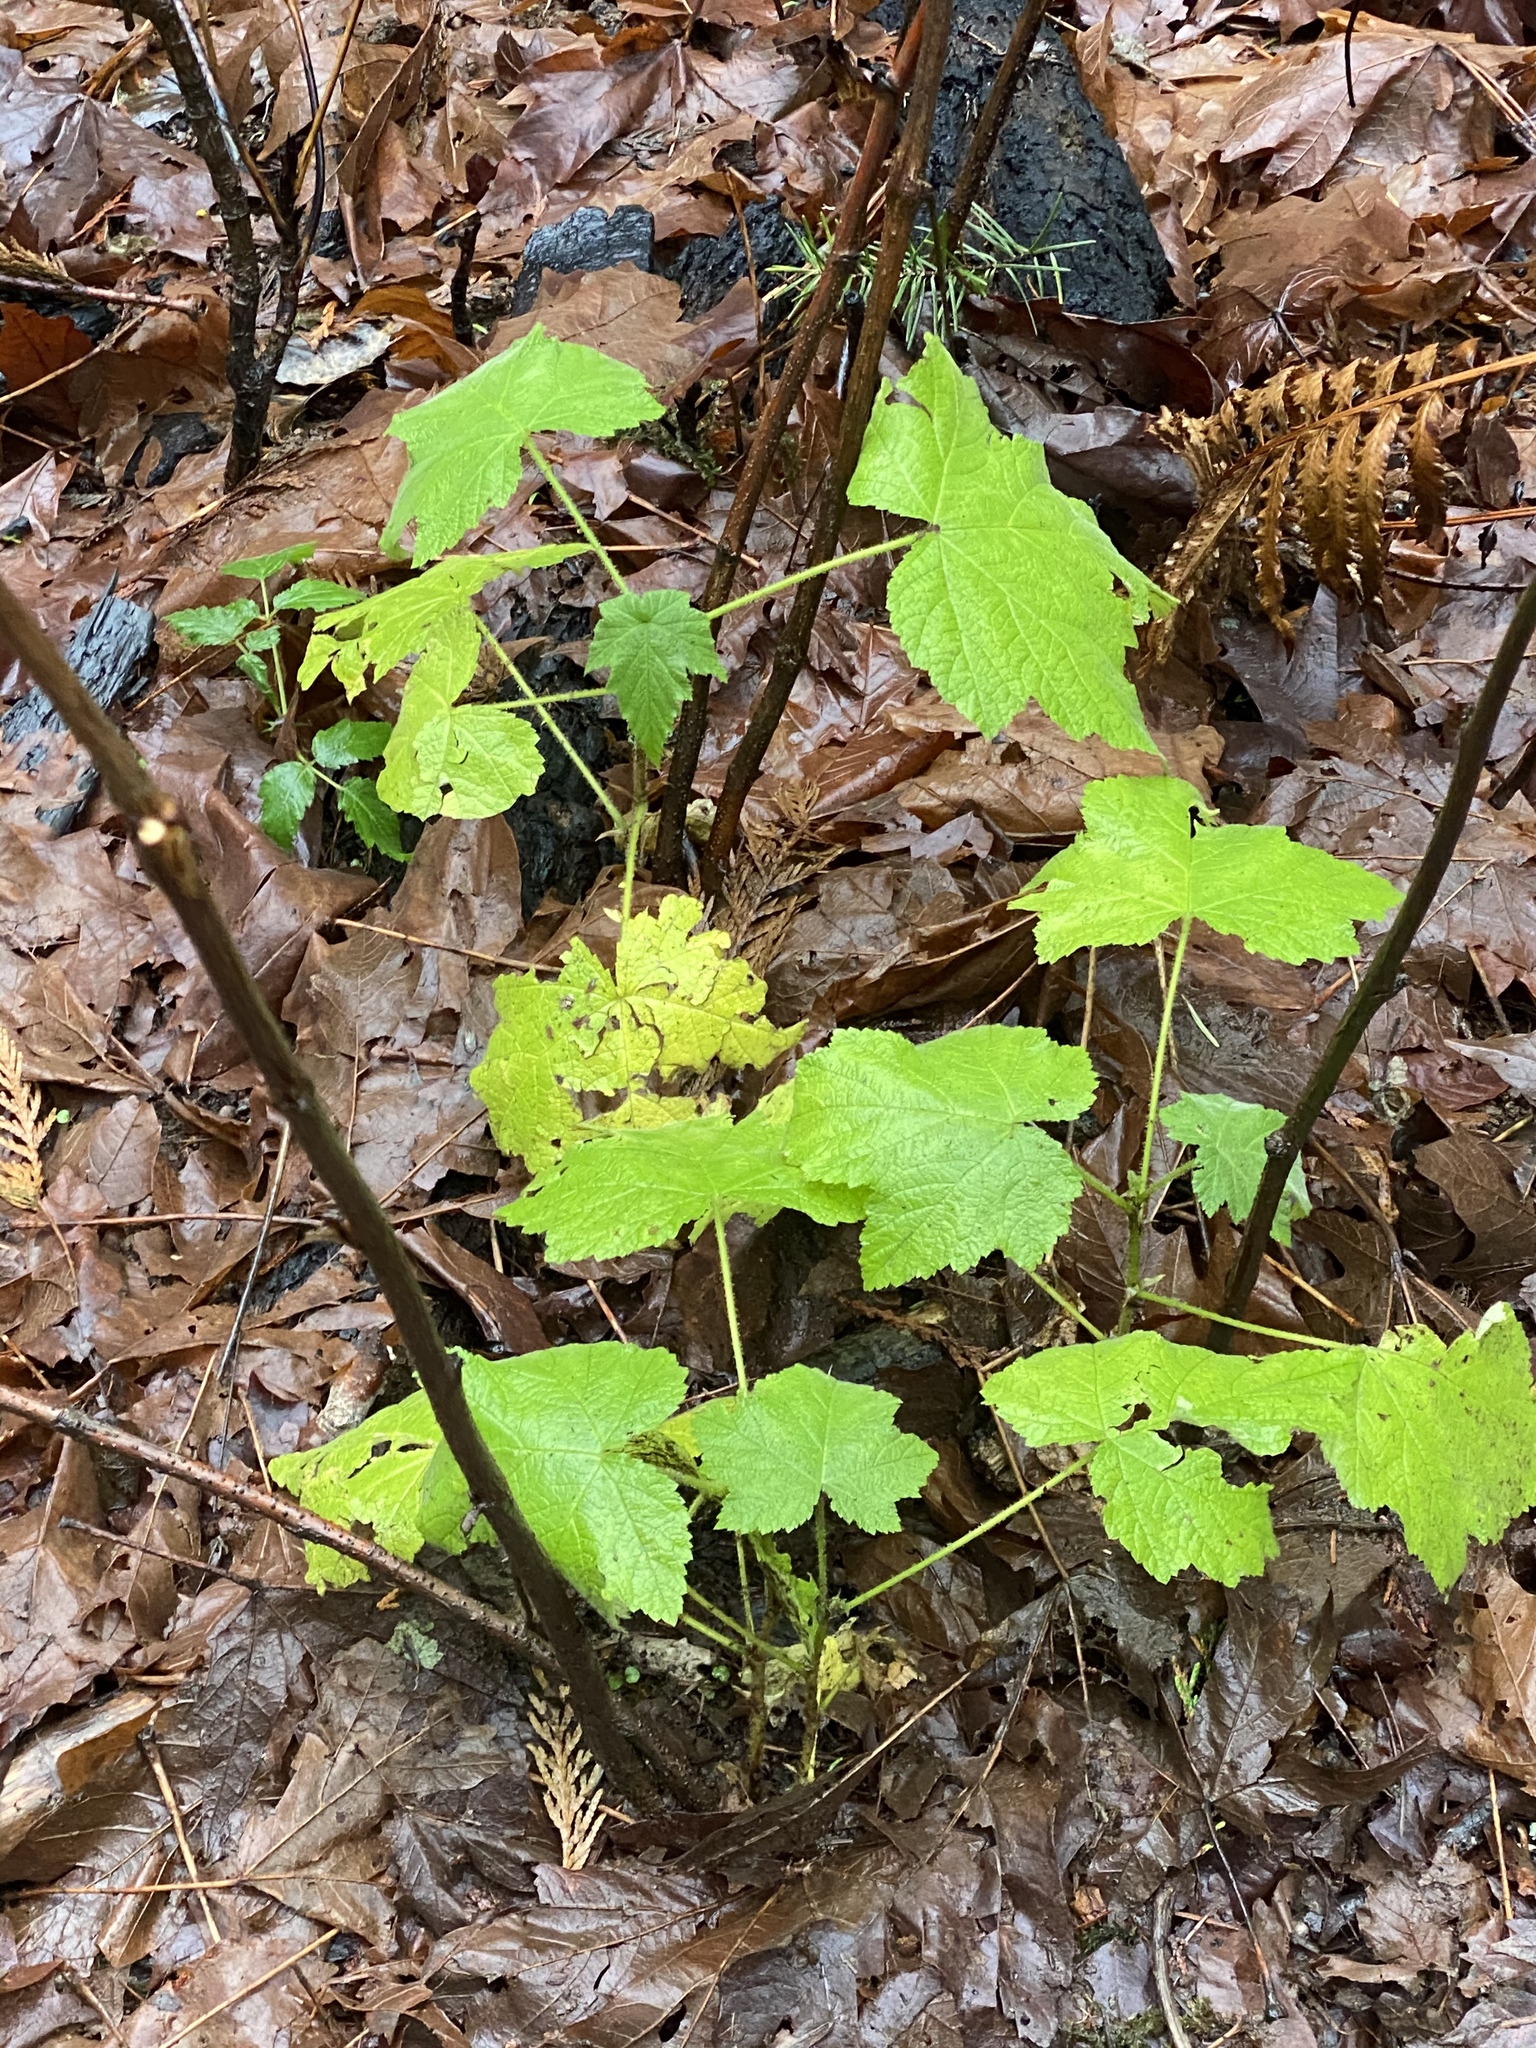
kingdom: Plantae
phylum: Tracheophyta
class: Magnoliopsida
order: Rosales
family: Rosaceae
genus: Rubus
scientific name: Rubus parviflorus
